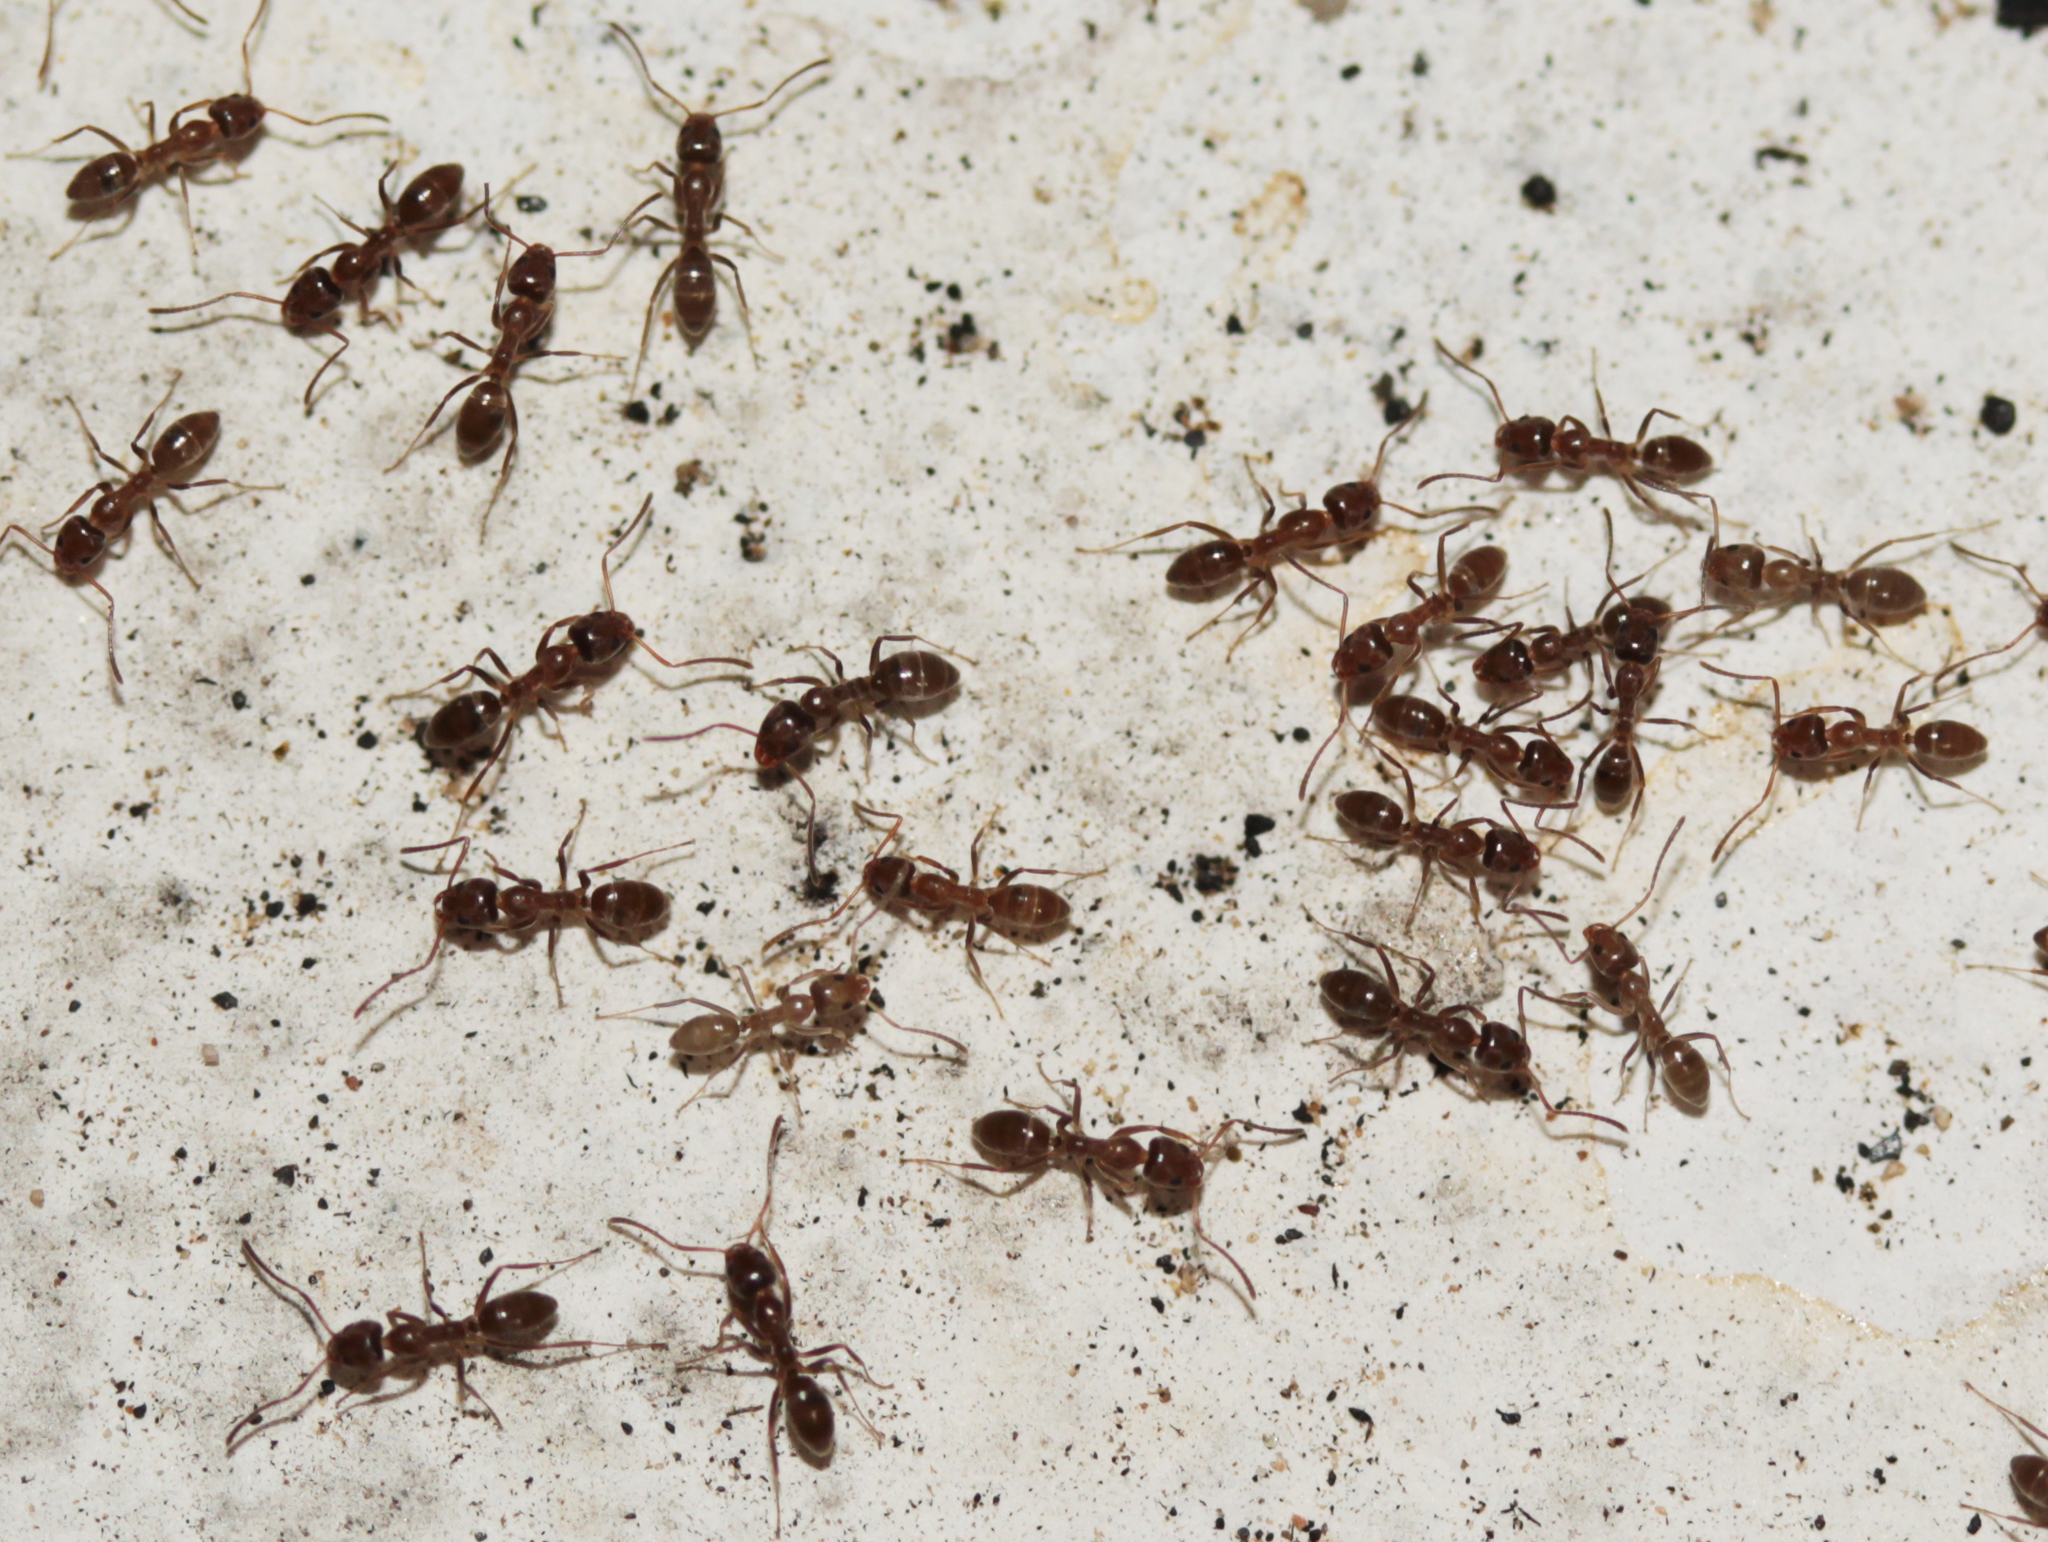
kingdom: Animalia
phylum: Arthropoda
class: Insecta
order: Hymenoptera
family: Formicidae
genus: Linepithema
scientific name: Linepithema humile
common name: Argentine ant
